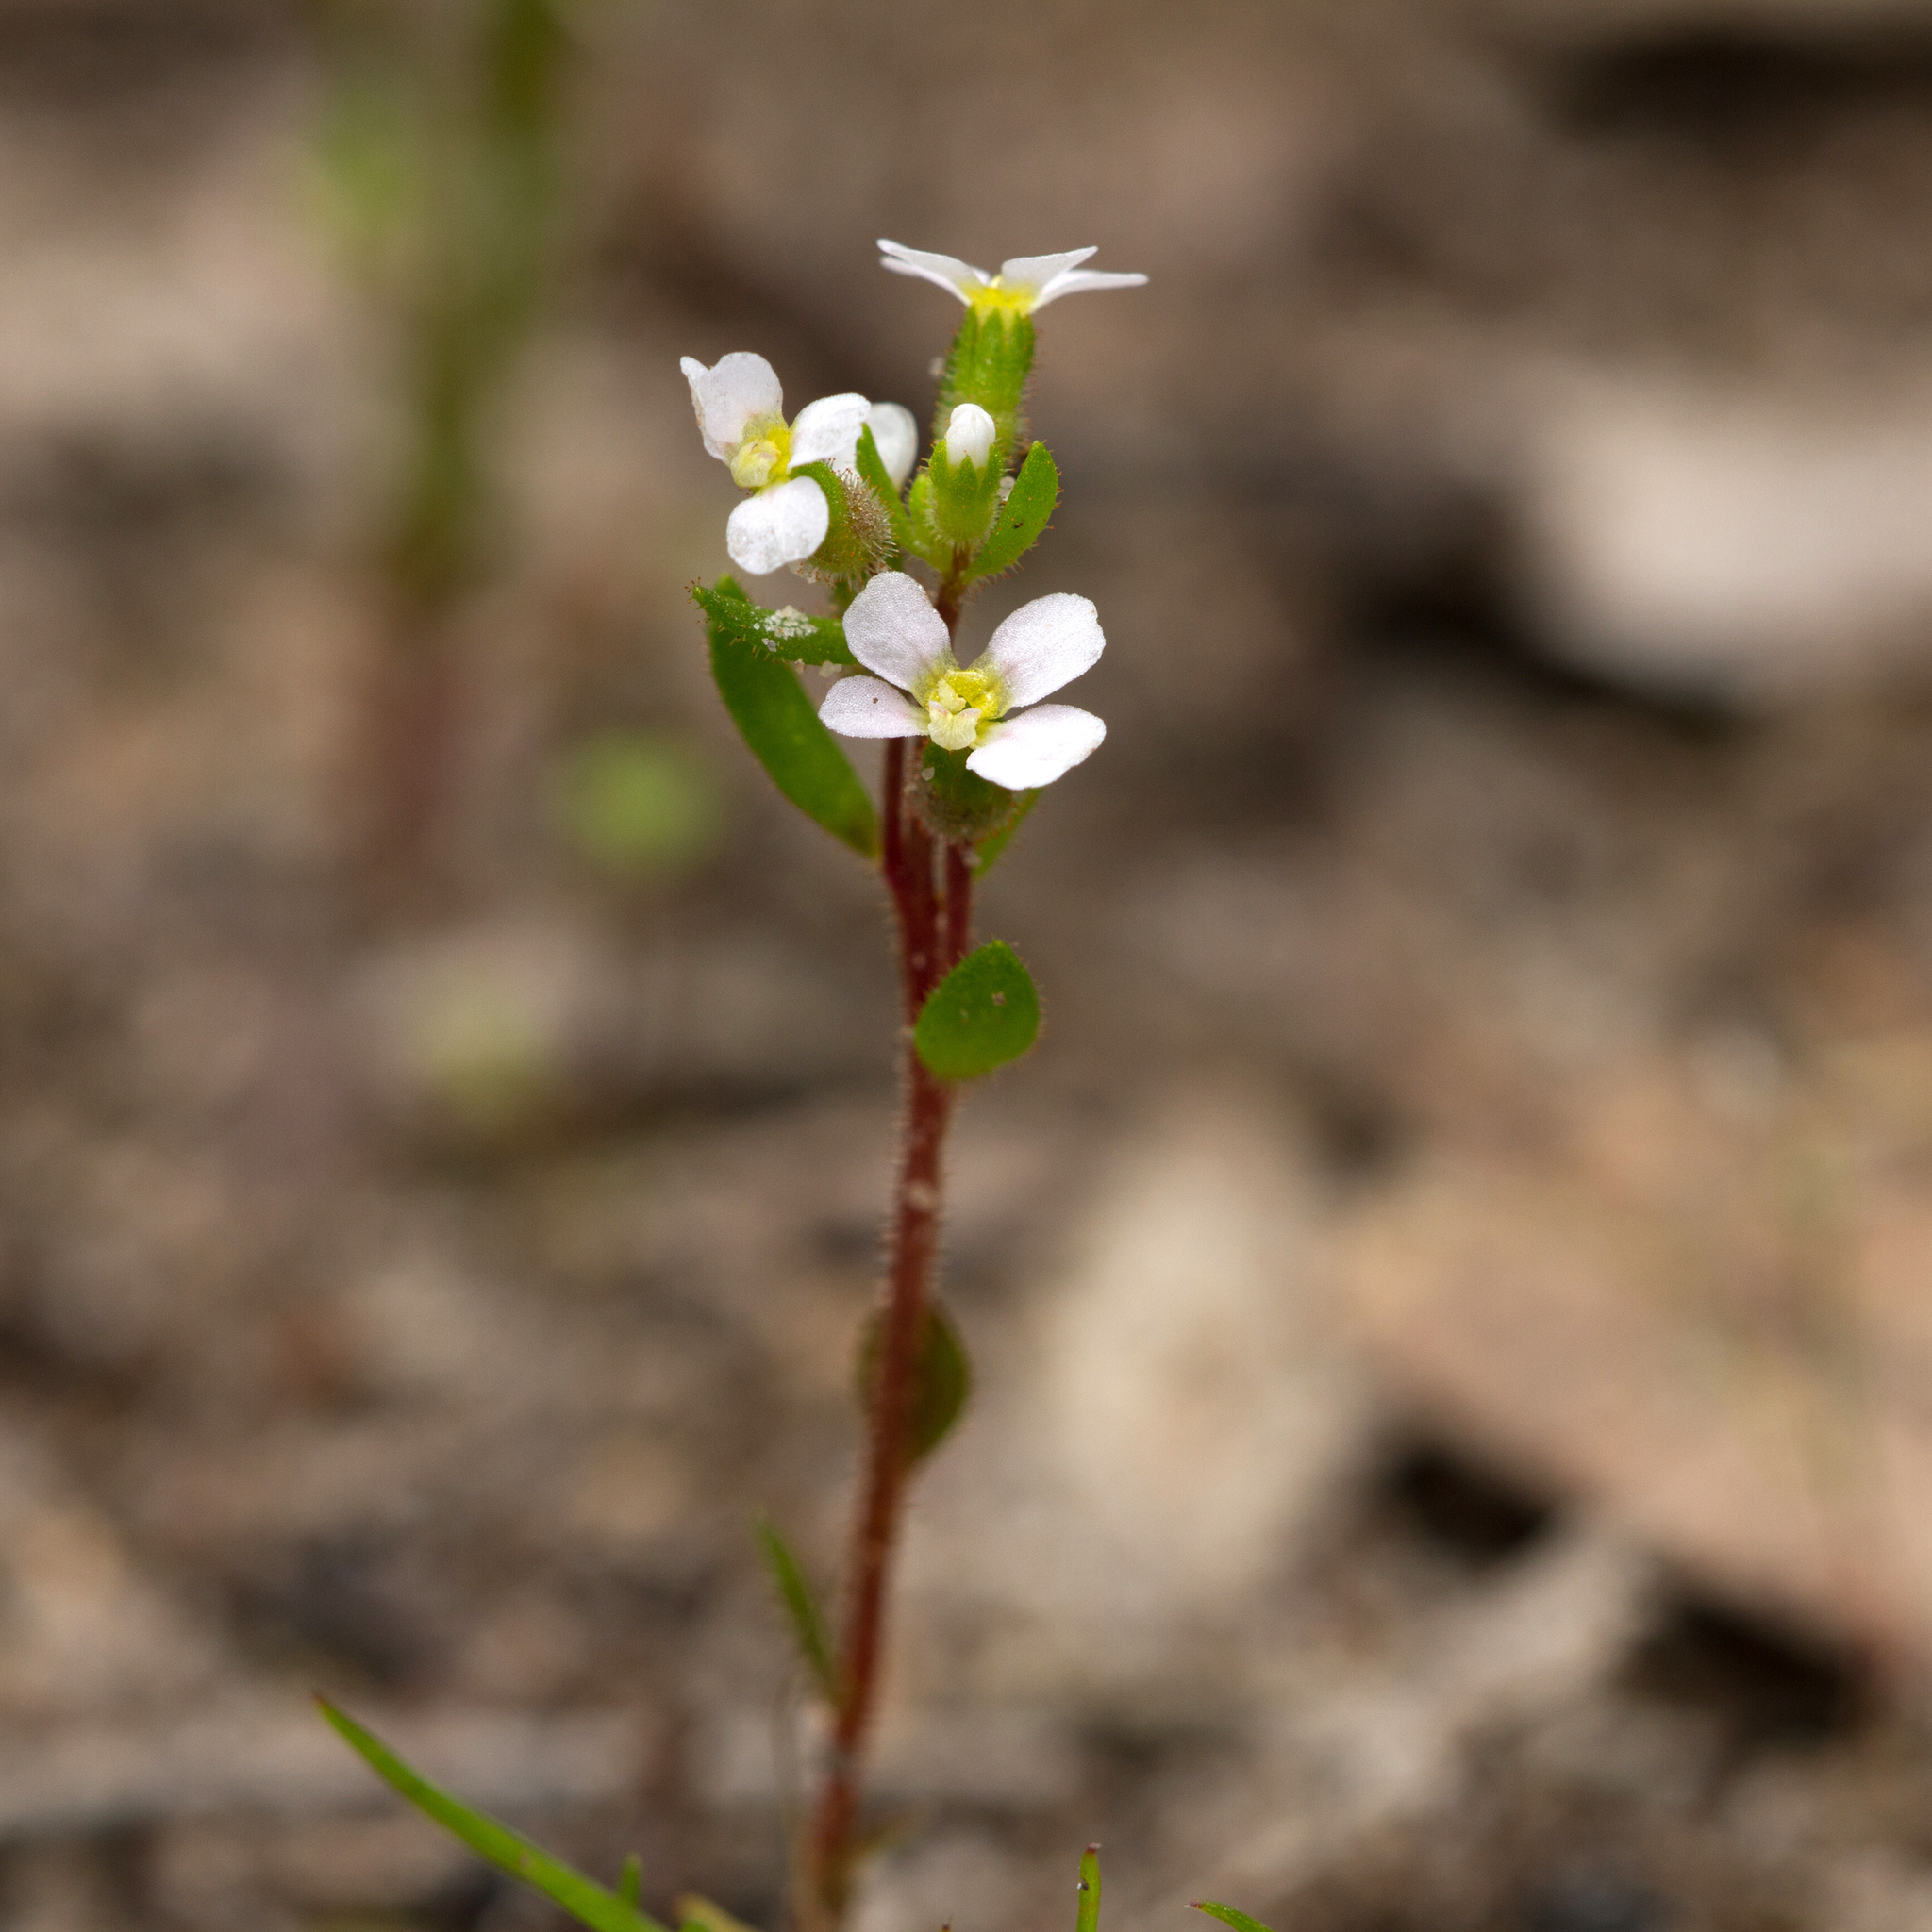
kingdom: Plantae
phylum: Tracheophyta
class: Magnoliopsida
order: Asterales
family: Stylidiaceae
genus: Levenhookia
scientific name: Levenhookia dubia
